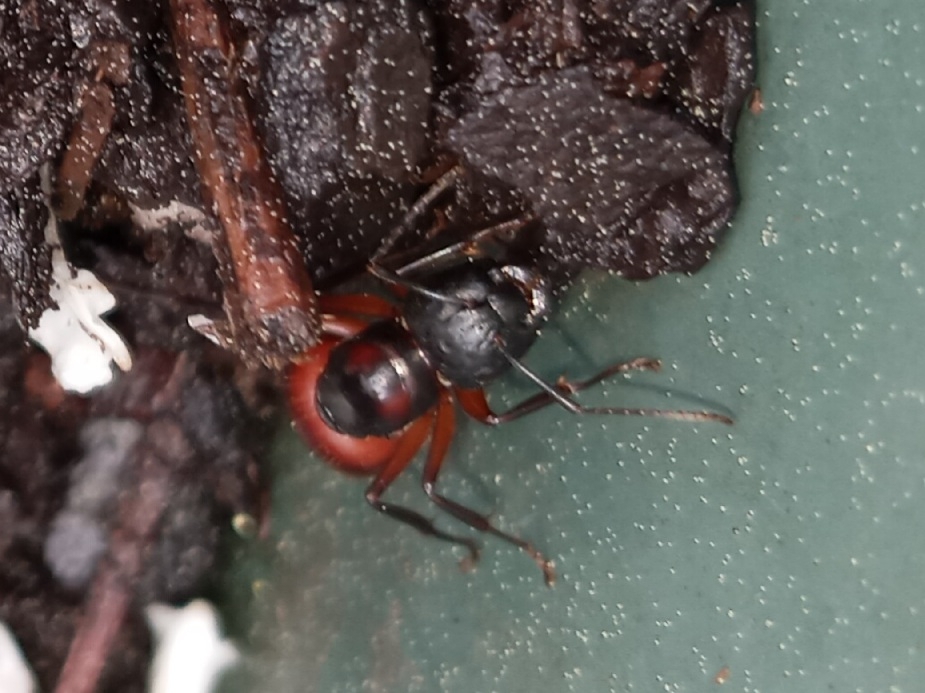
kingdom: Animalia
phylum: Arthropoda
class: Insecta
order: Hymenoptera
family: Formicidae
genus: Camponotus
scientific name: Camponotus chromaiodes
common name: Red carpenter ant
